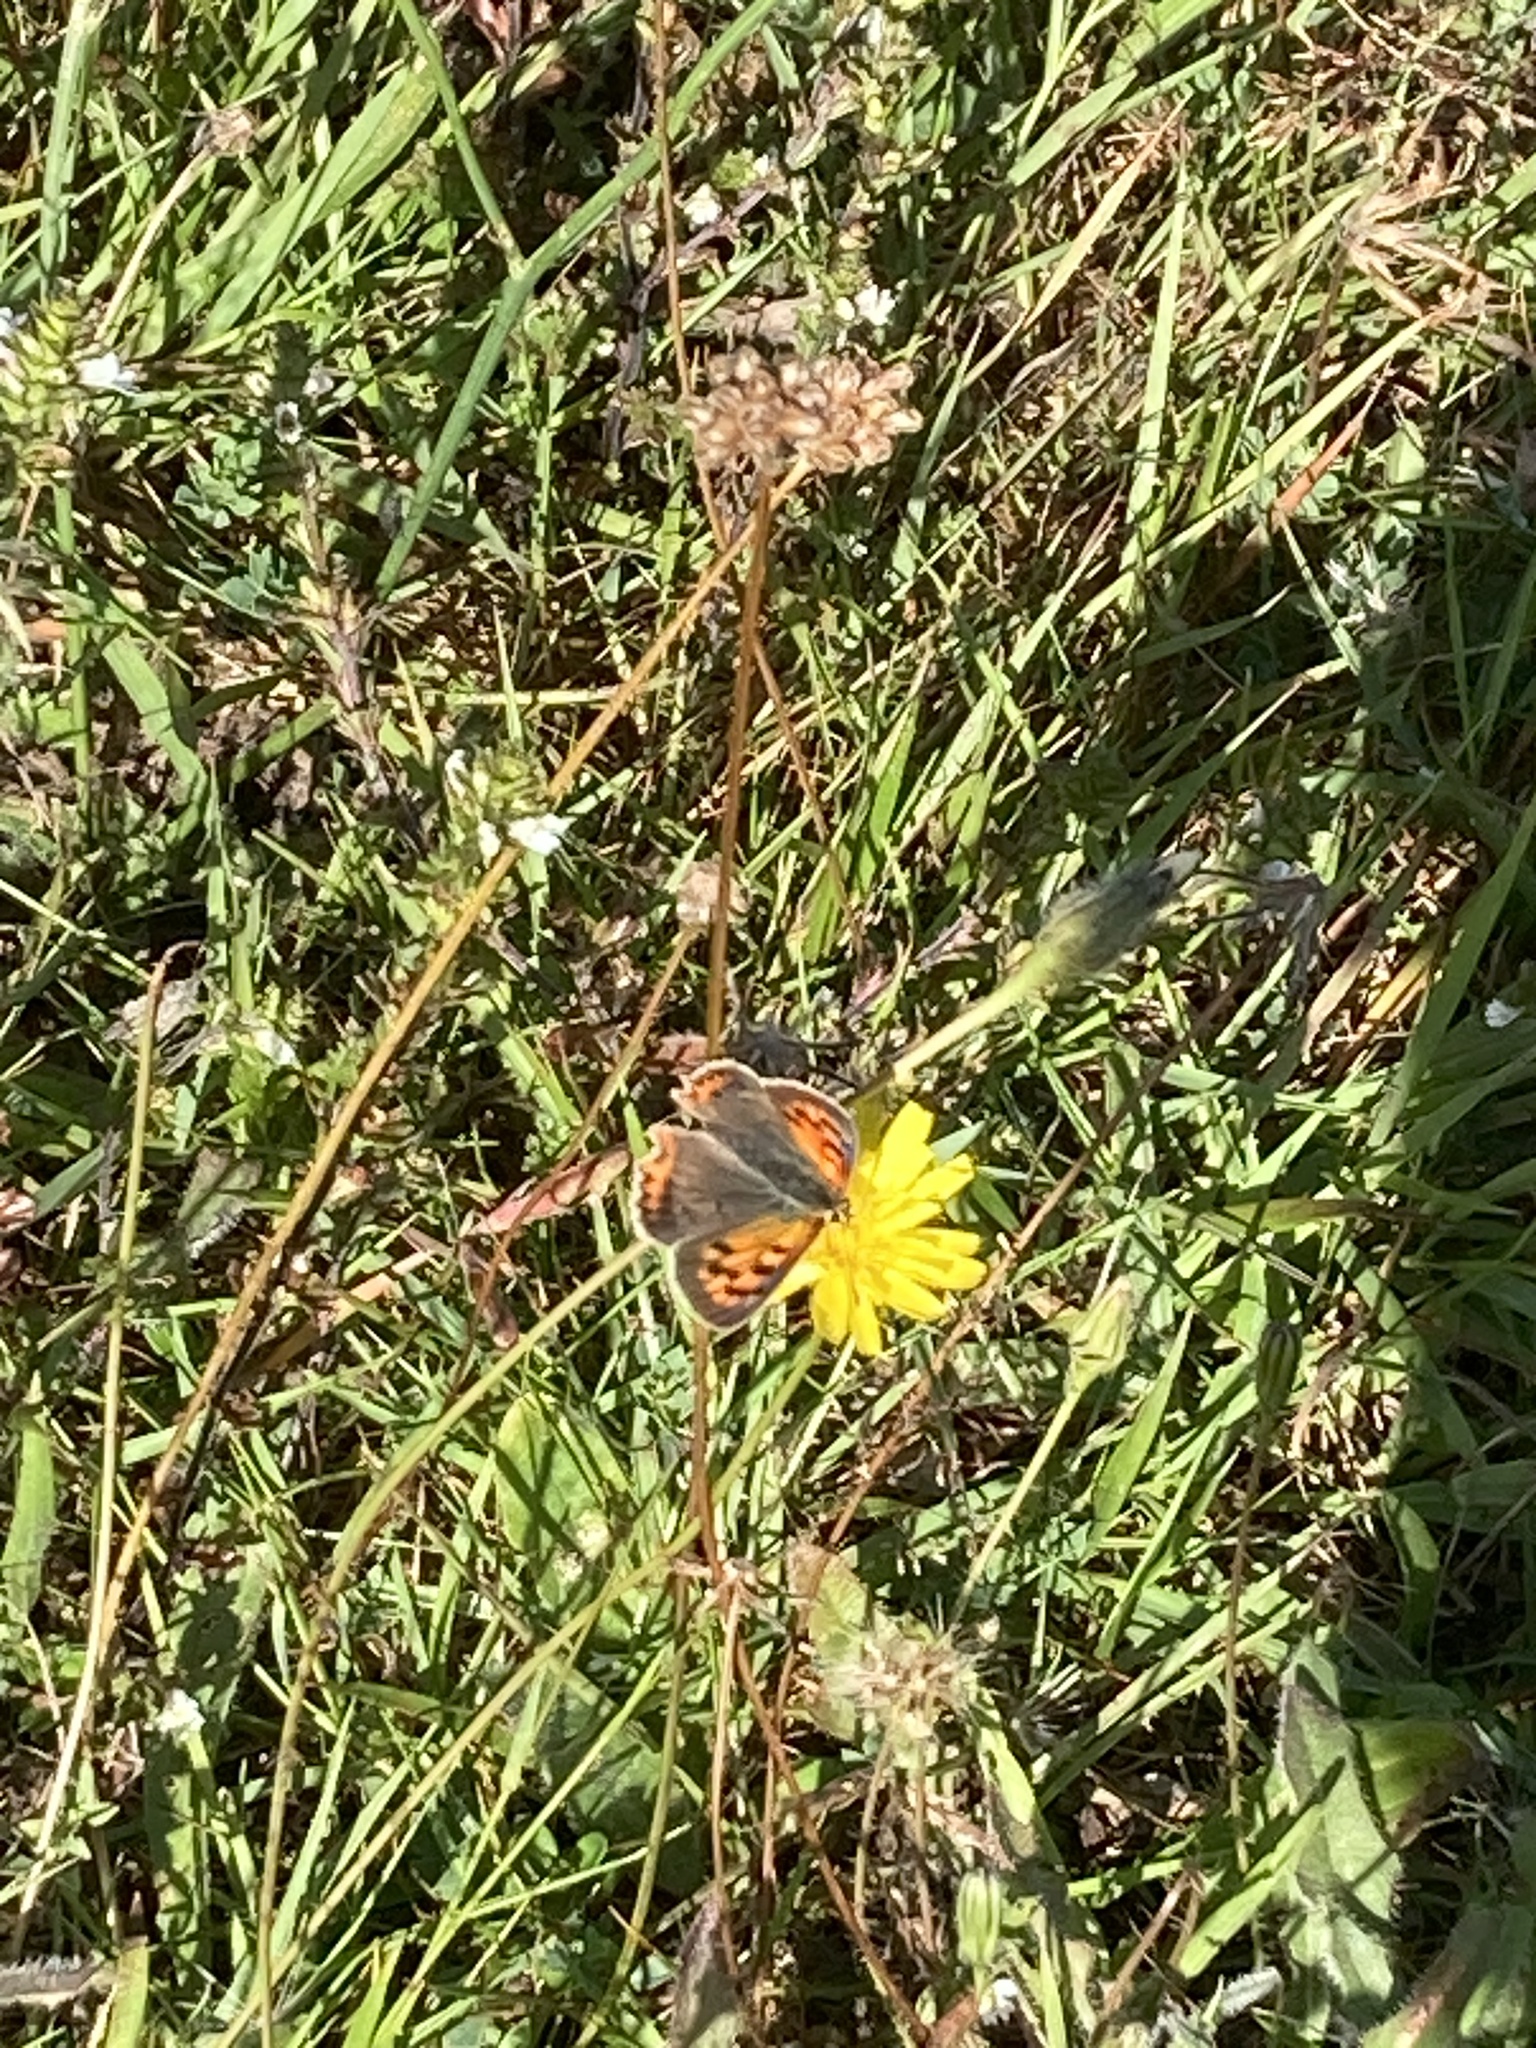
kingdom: Animalia
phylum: Arthropoda
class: Insecta
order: Lepidoptera
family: Lycaenidae
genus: Lycaena
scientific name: Lycaena phlaeas
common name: Small copper
